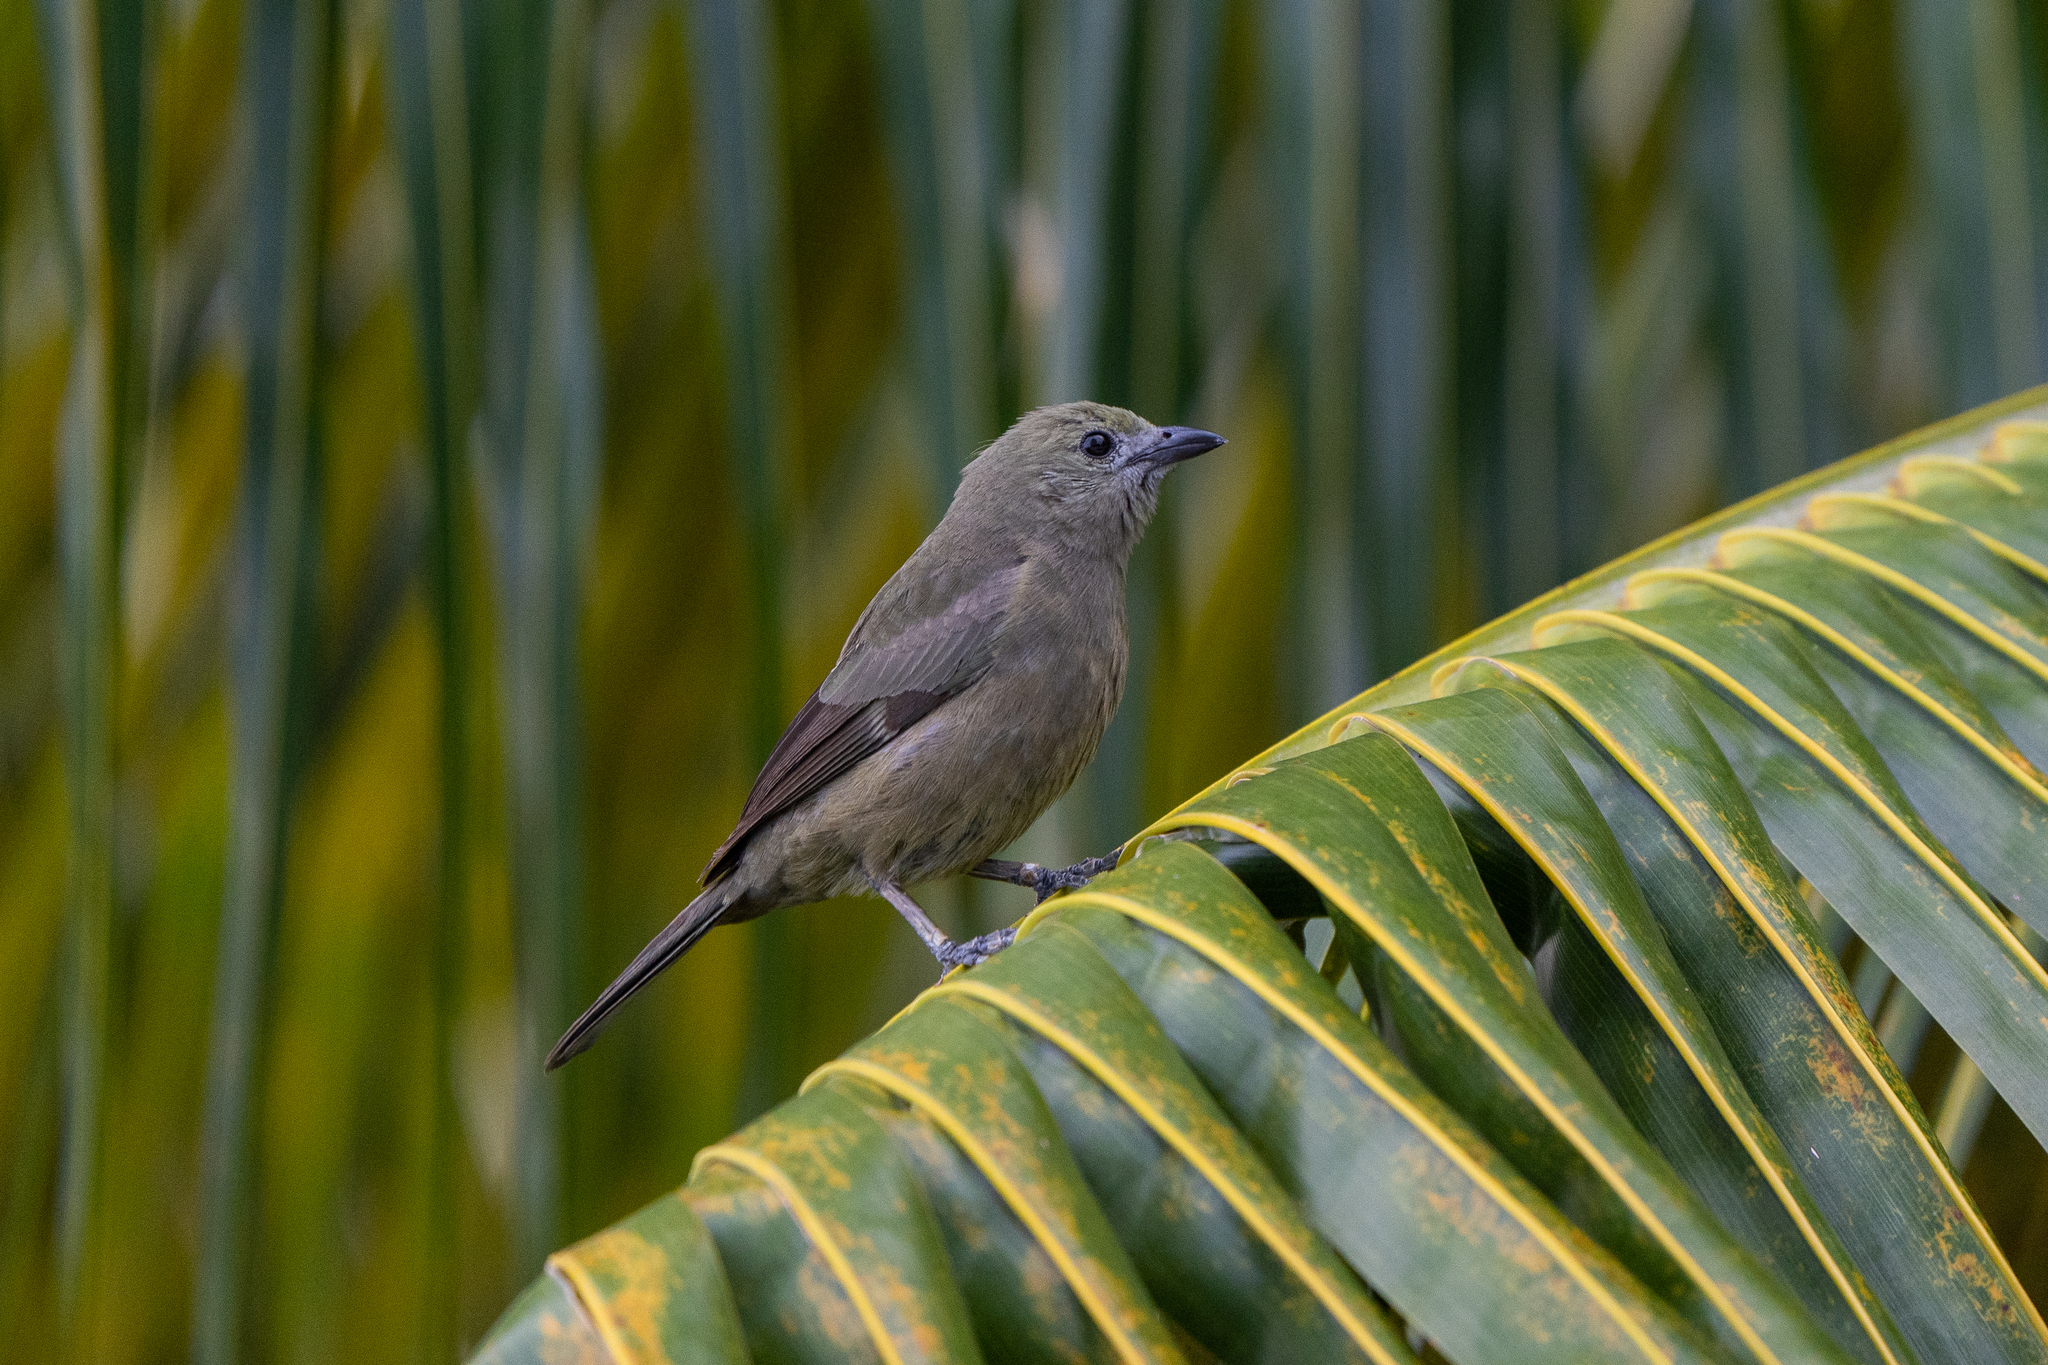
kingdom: Animalia
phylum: Chordata
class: Aves
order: Passeriformes
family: Thraupidae
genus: Thraupis
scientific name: Thraupis palmarum
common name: Palm tanager
